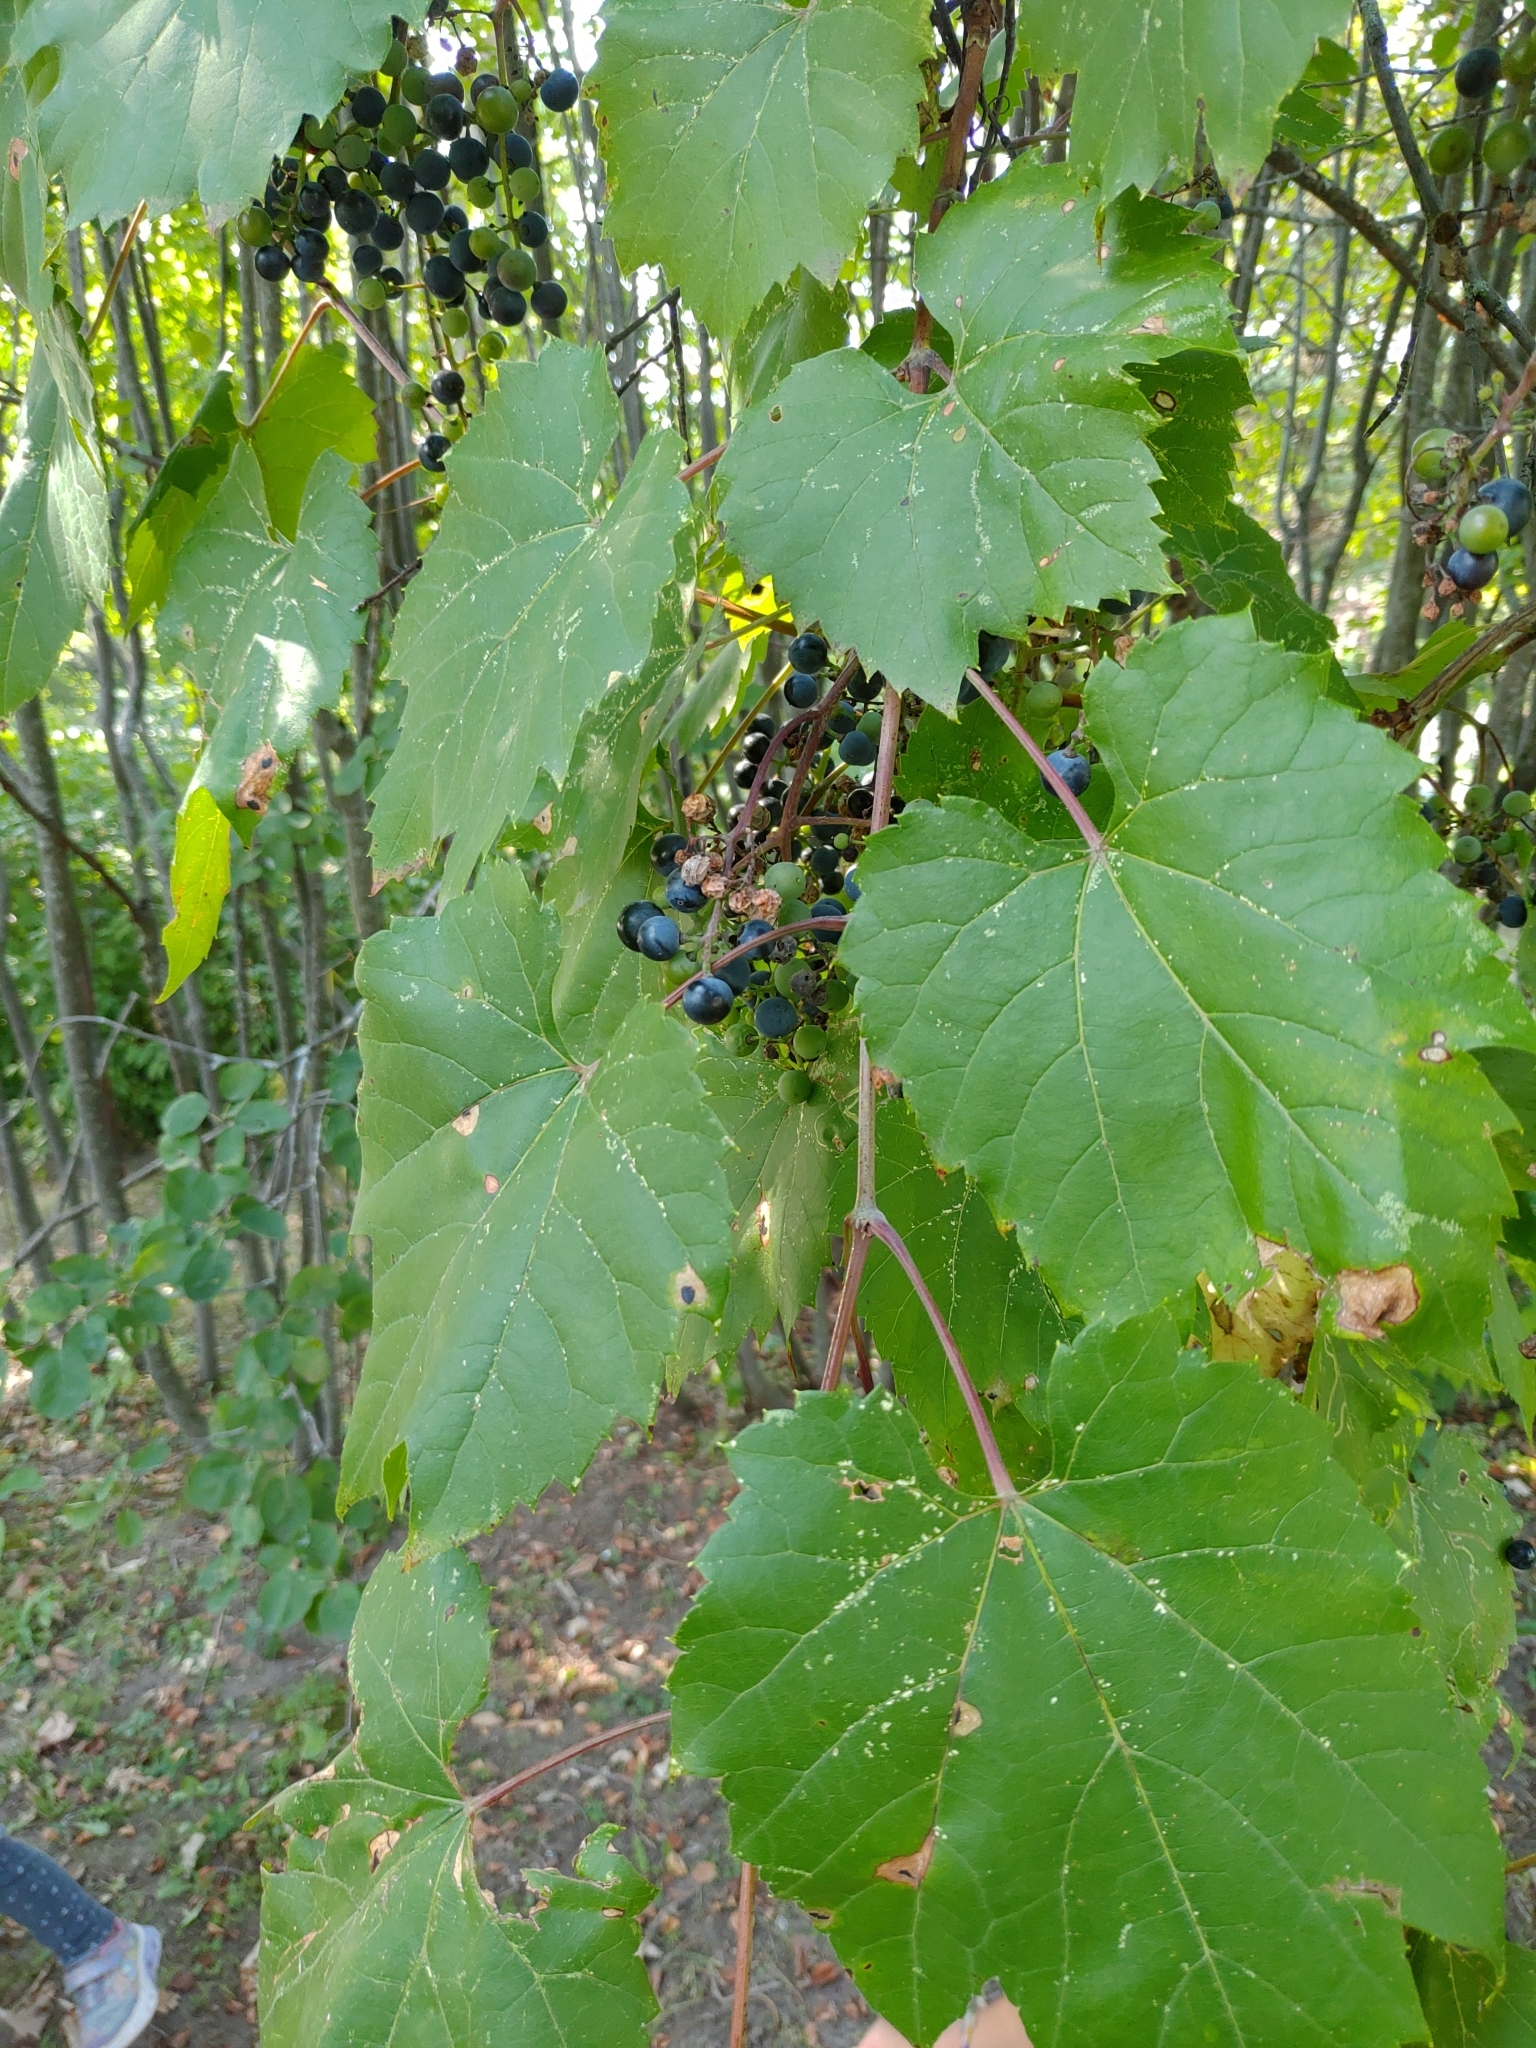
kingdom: Plantae
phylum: Tracheophyta
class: Magnoliopsida
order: Vitales
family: Vitaceae
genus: Vitis
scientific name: Vitis riparia
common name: Frost grape
